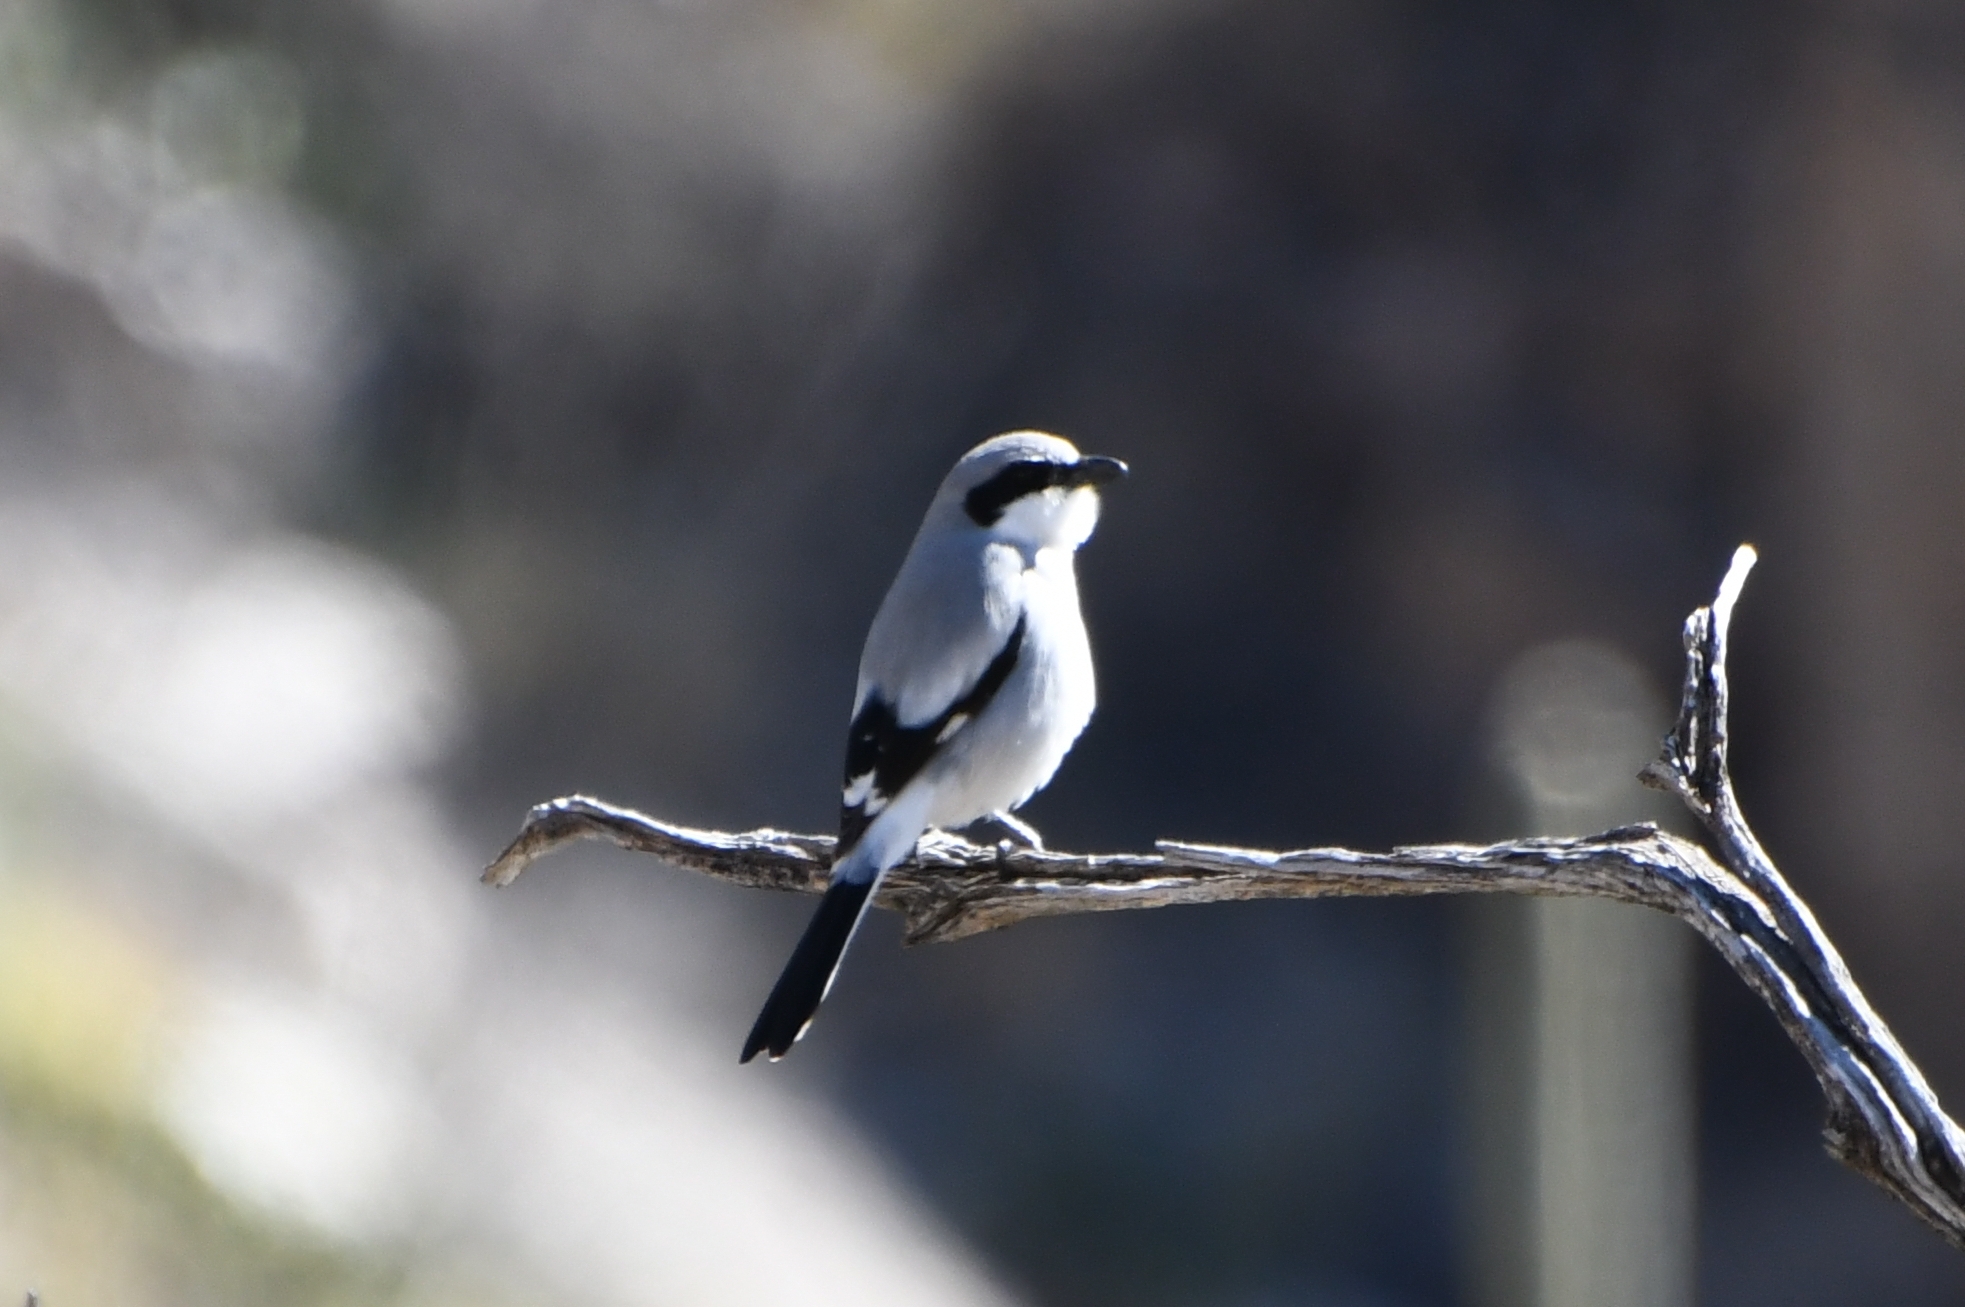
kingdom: Animalia
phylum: Chordata
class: Aves
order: Passeriformes
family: Laniidae
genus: Lanius
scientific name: Lanius ludovicianus
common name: Loggerhead shrike
